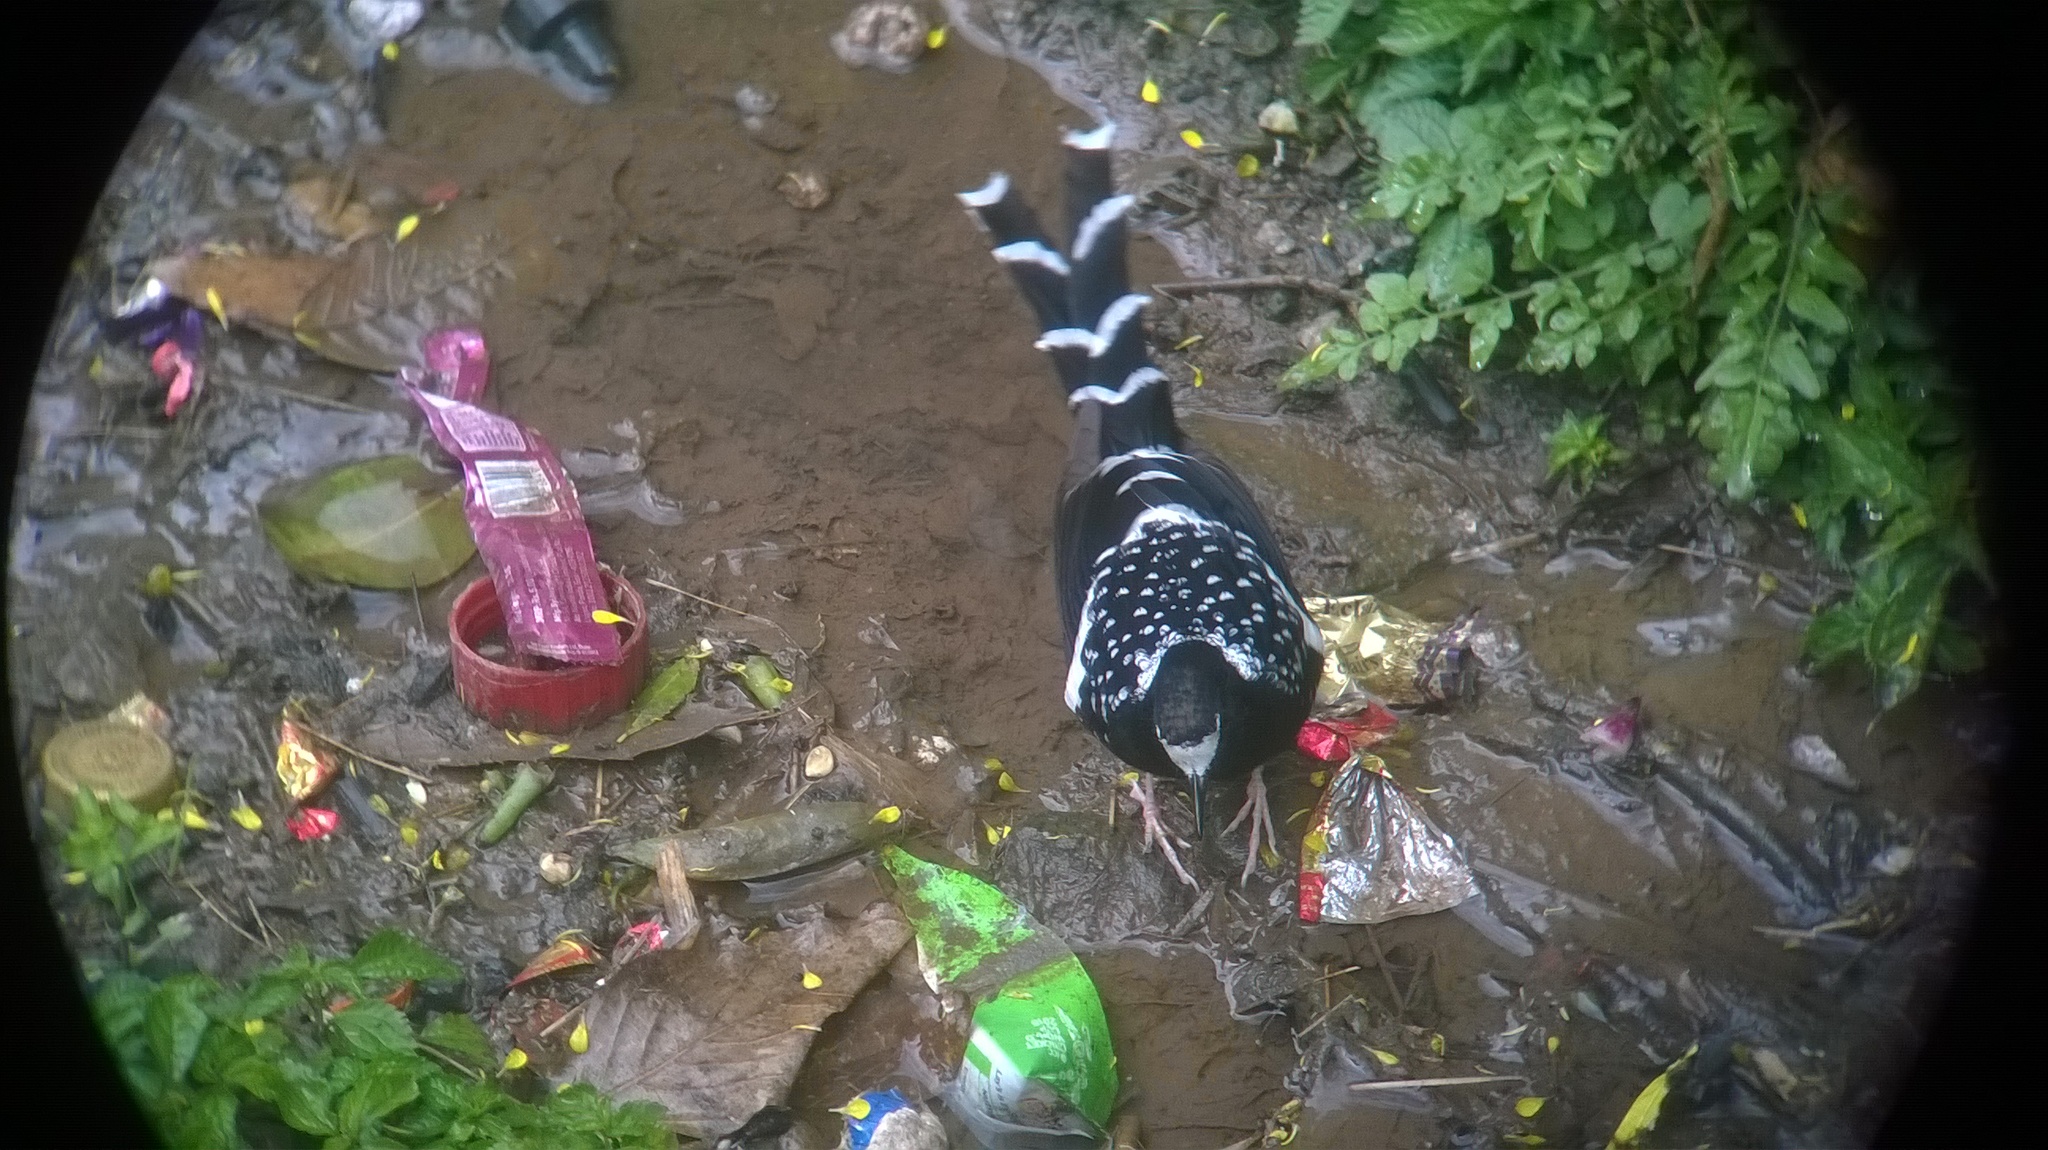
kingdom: Animalia
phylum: Chordata
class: Aves
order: Passeriformes
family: Muscicapidae
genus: Enicurus
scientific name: Enicurus maculatus
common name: Spotted forktail
